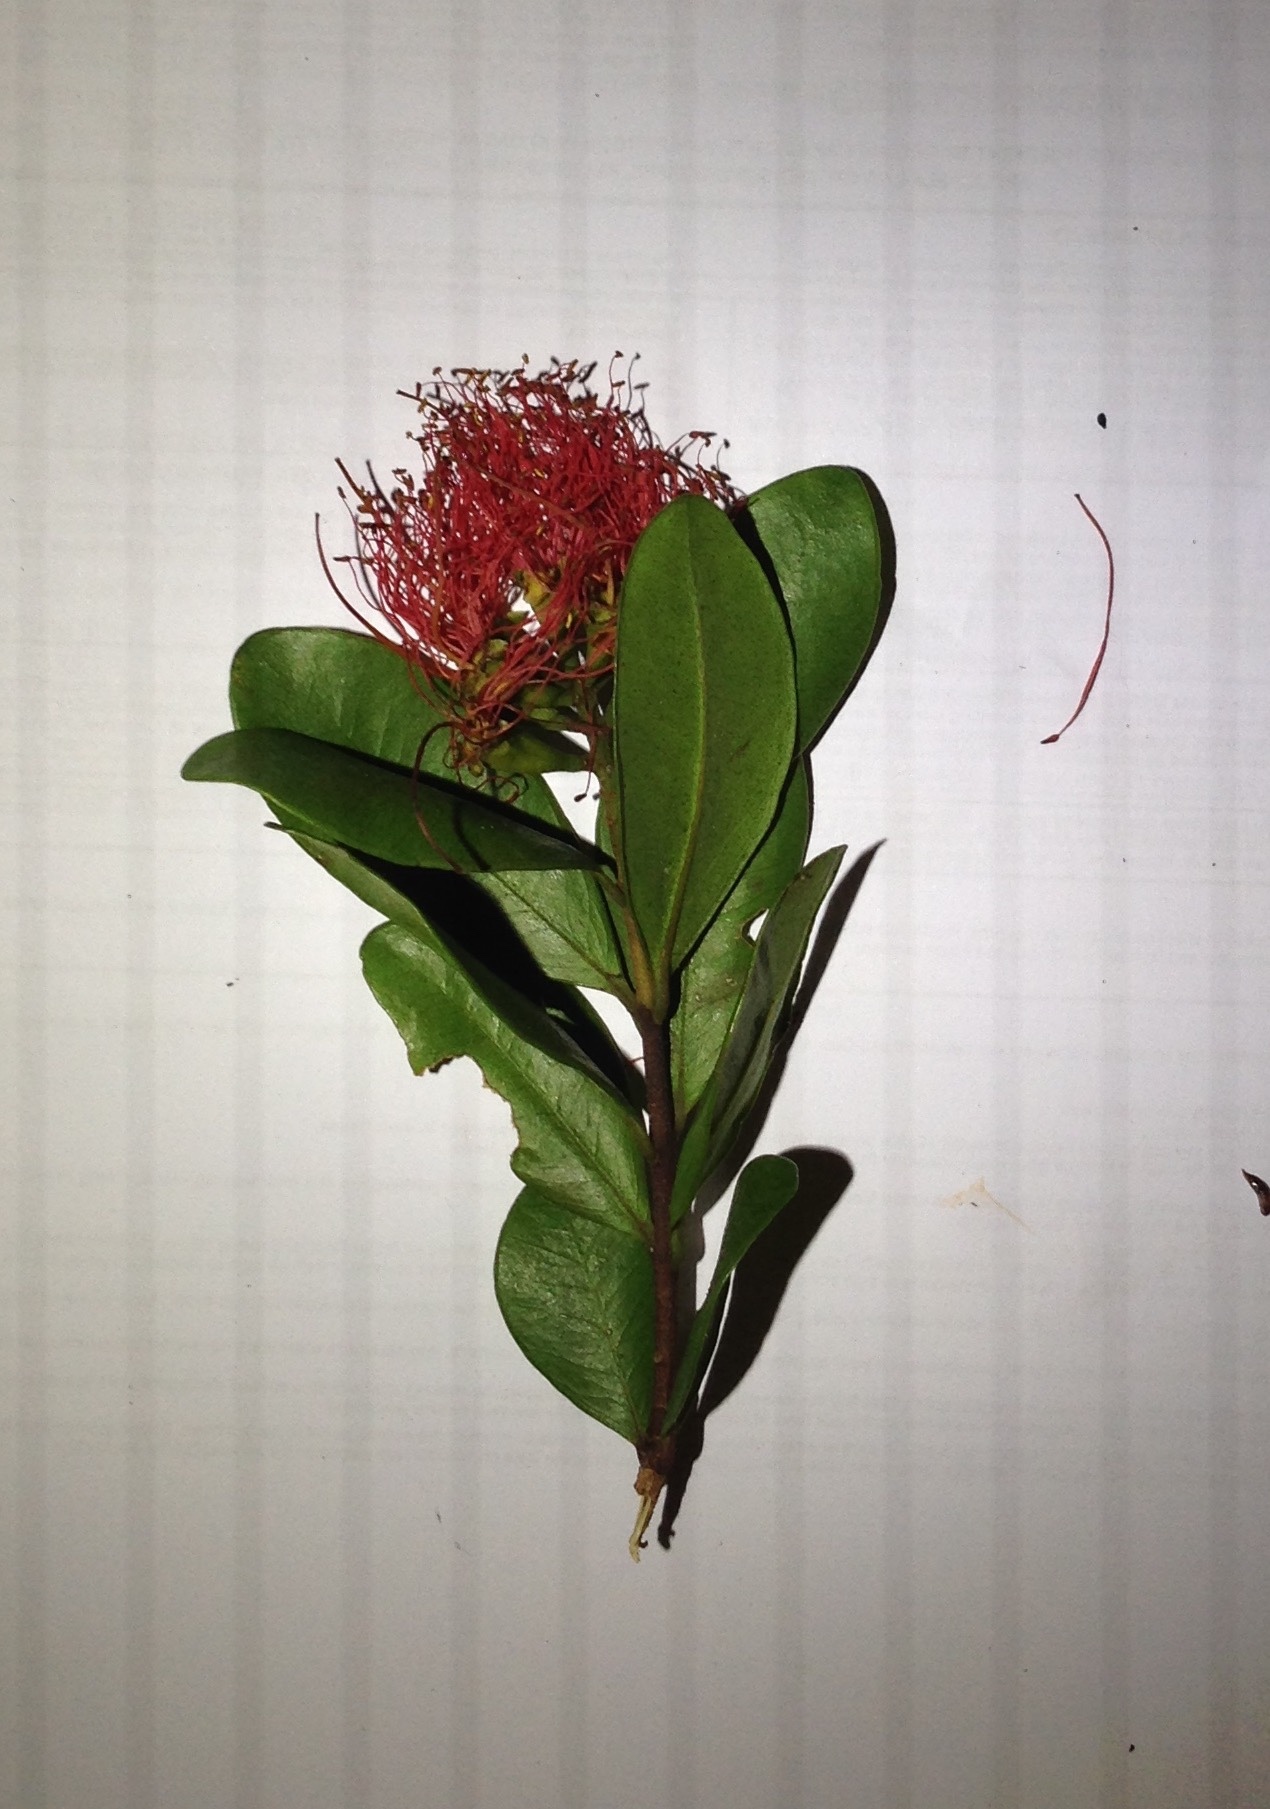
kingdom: Plantae
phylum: Tracheophyta
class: Magnoliopsida
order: Myrtales
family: Myrtaceae
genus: Metrosideros
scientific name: Metrosideros fulgens
